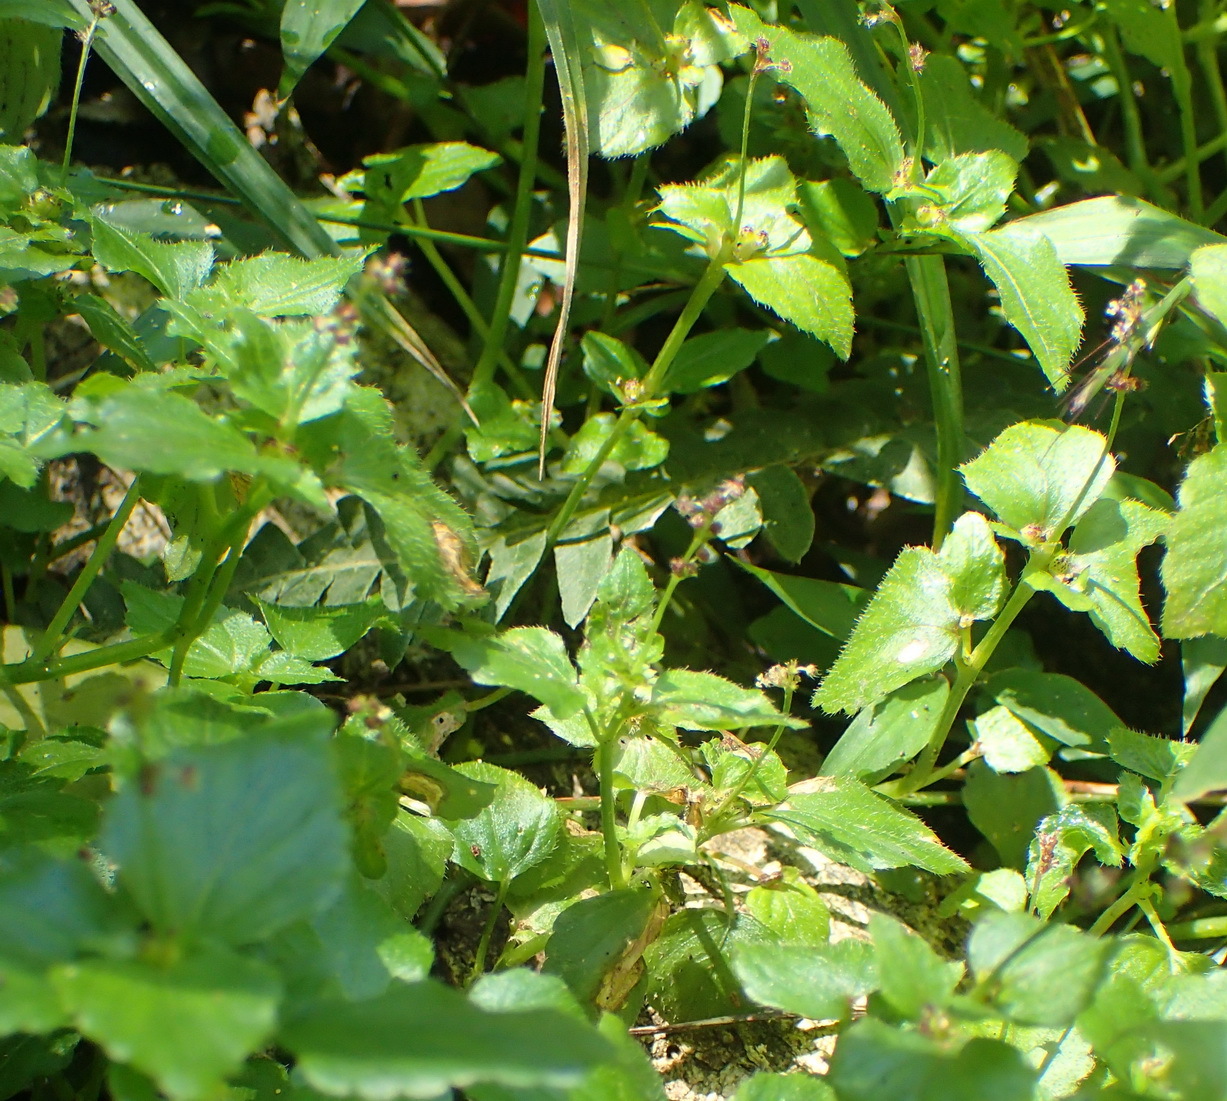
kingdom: Plantae
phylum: Tracheophyta
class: Magnoliopsida
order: Malpighiales
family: Euphorbiaceae
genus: Leidesia
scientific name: Leidesia procumbens
